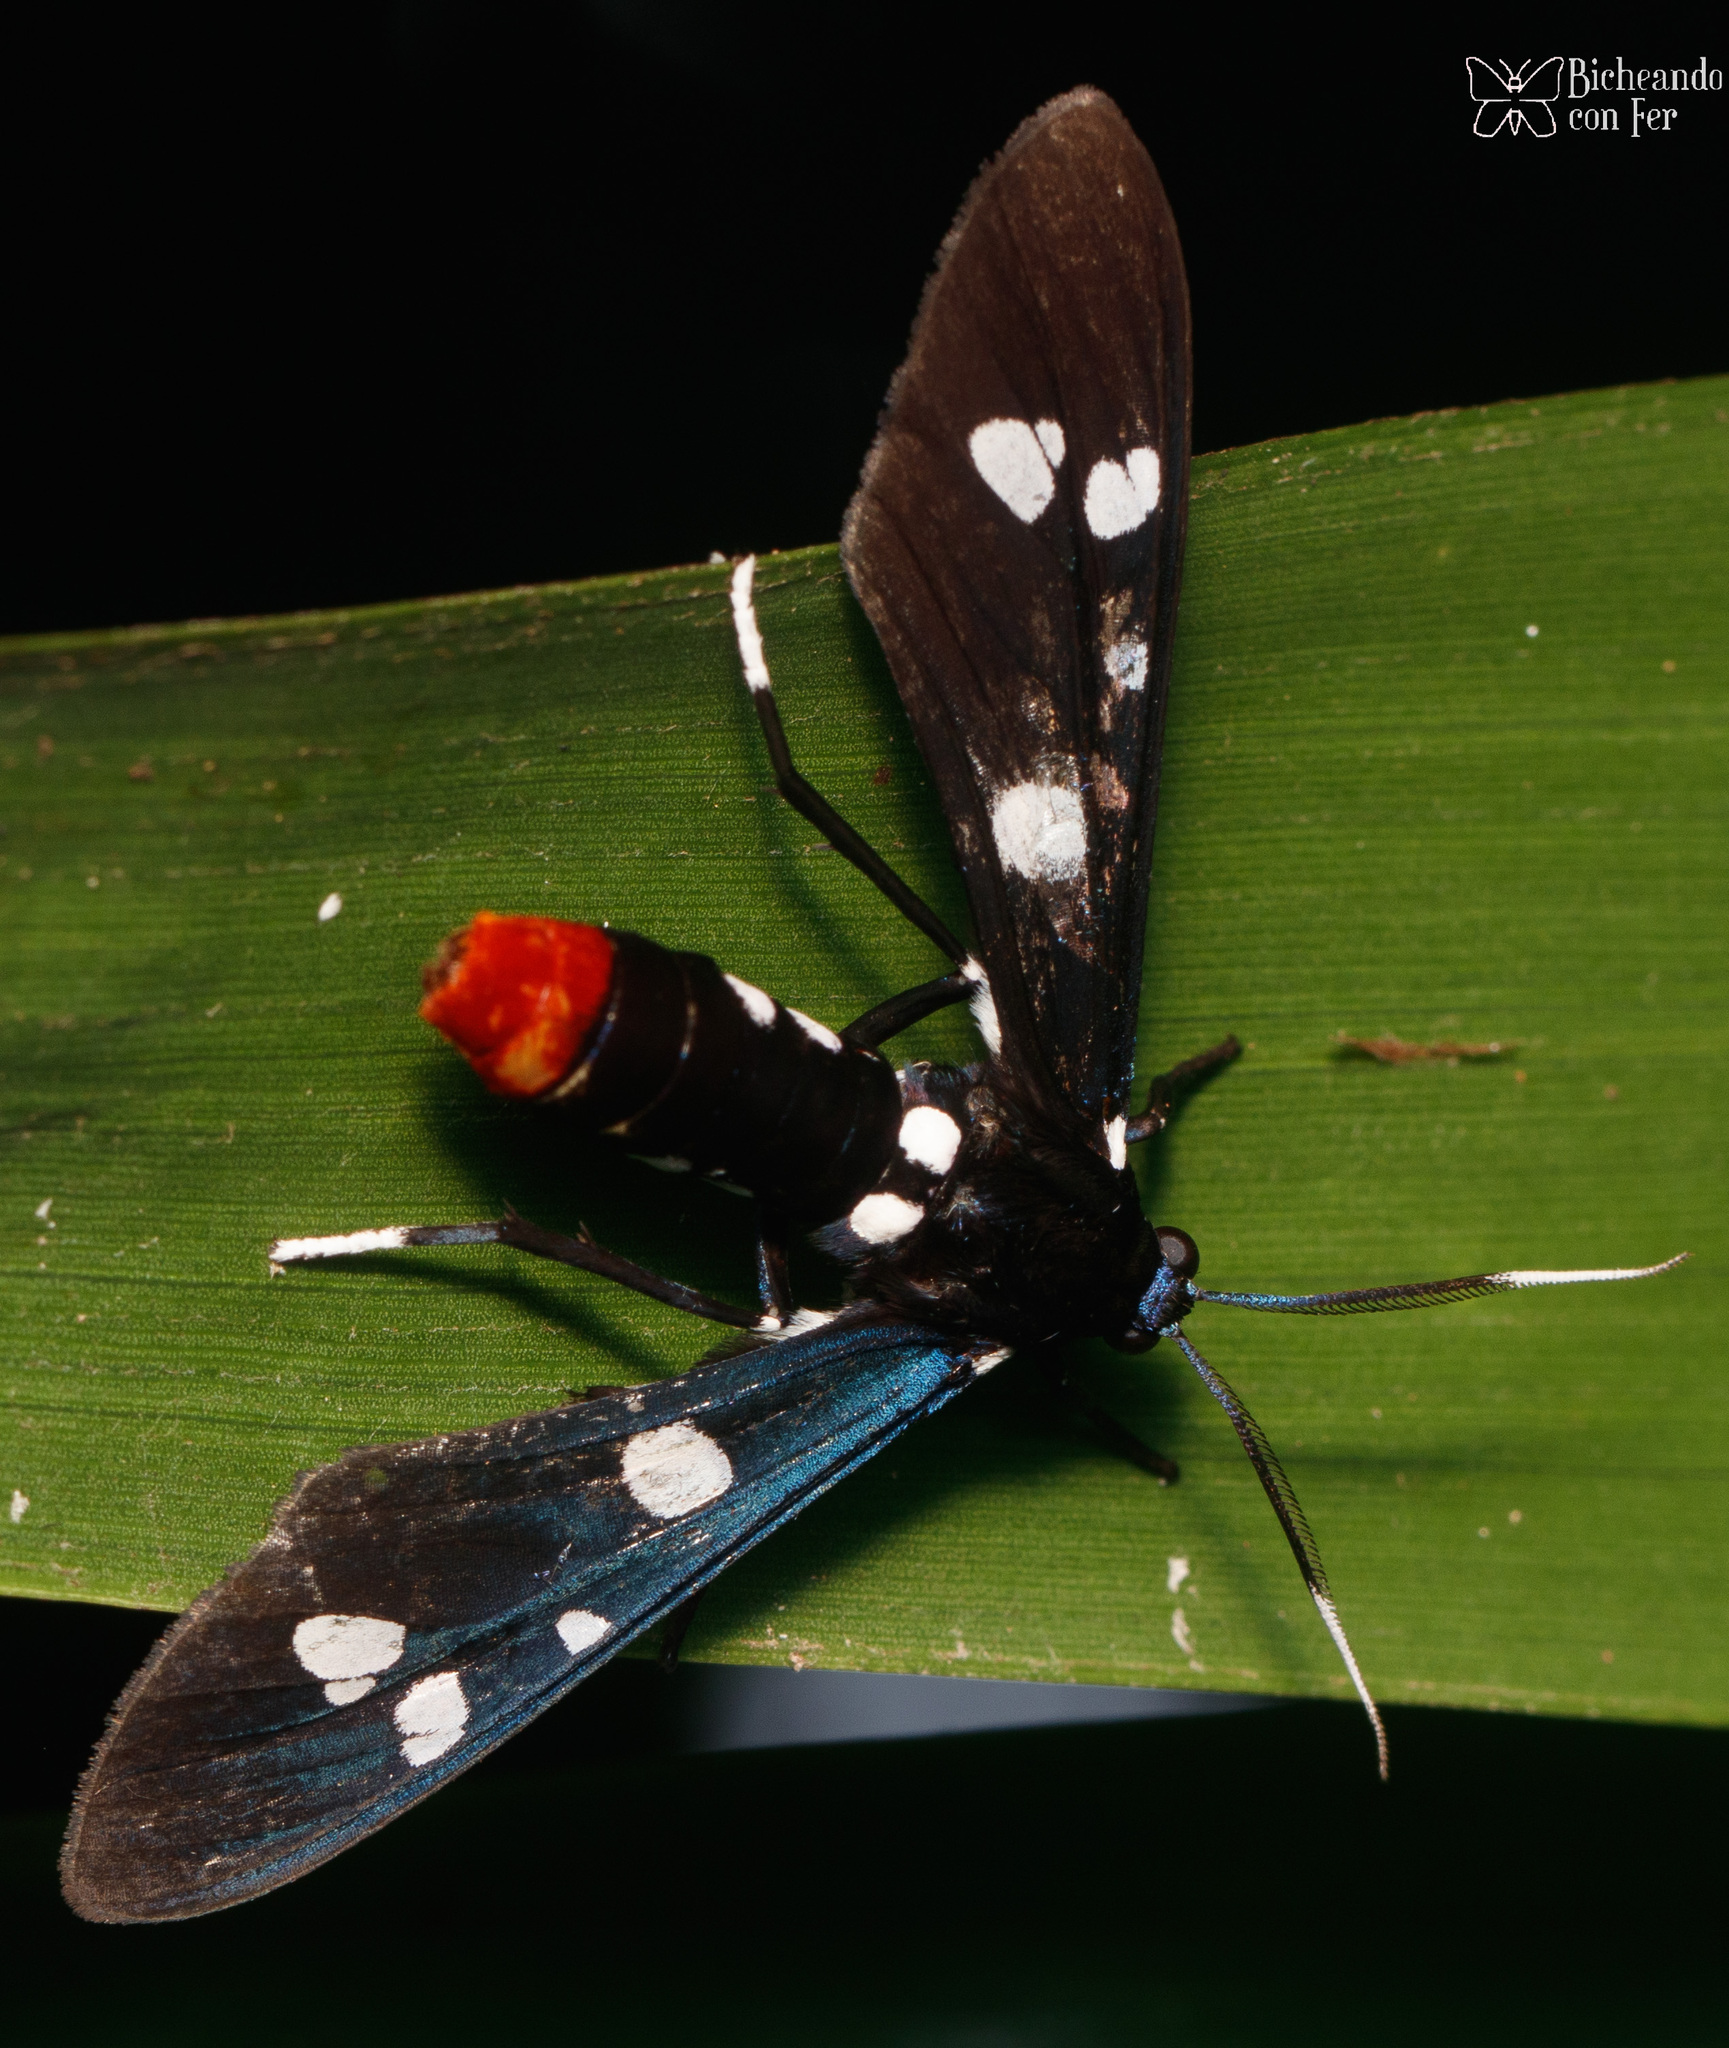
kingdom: Animalia
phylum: Arthropoda
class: Insecta
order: Lepidoptera
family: Erebidae
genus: Syntomeida
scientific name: Syntomeida epilais
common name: Polka-dot wasp moth
